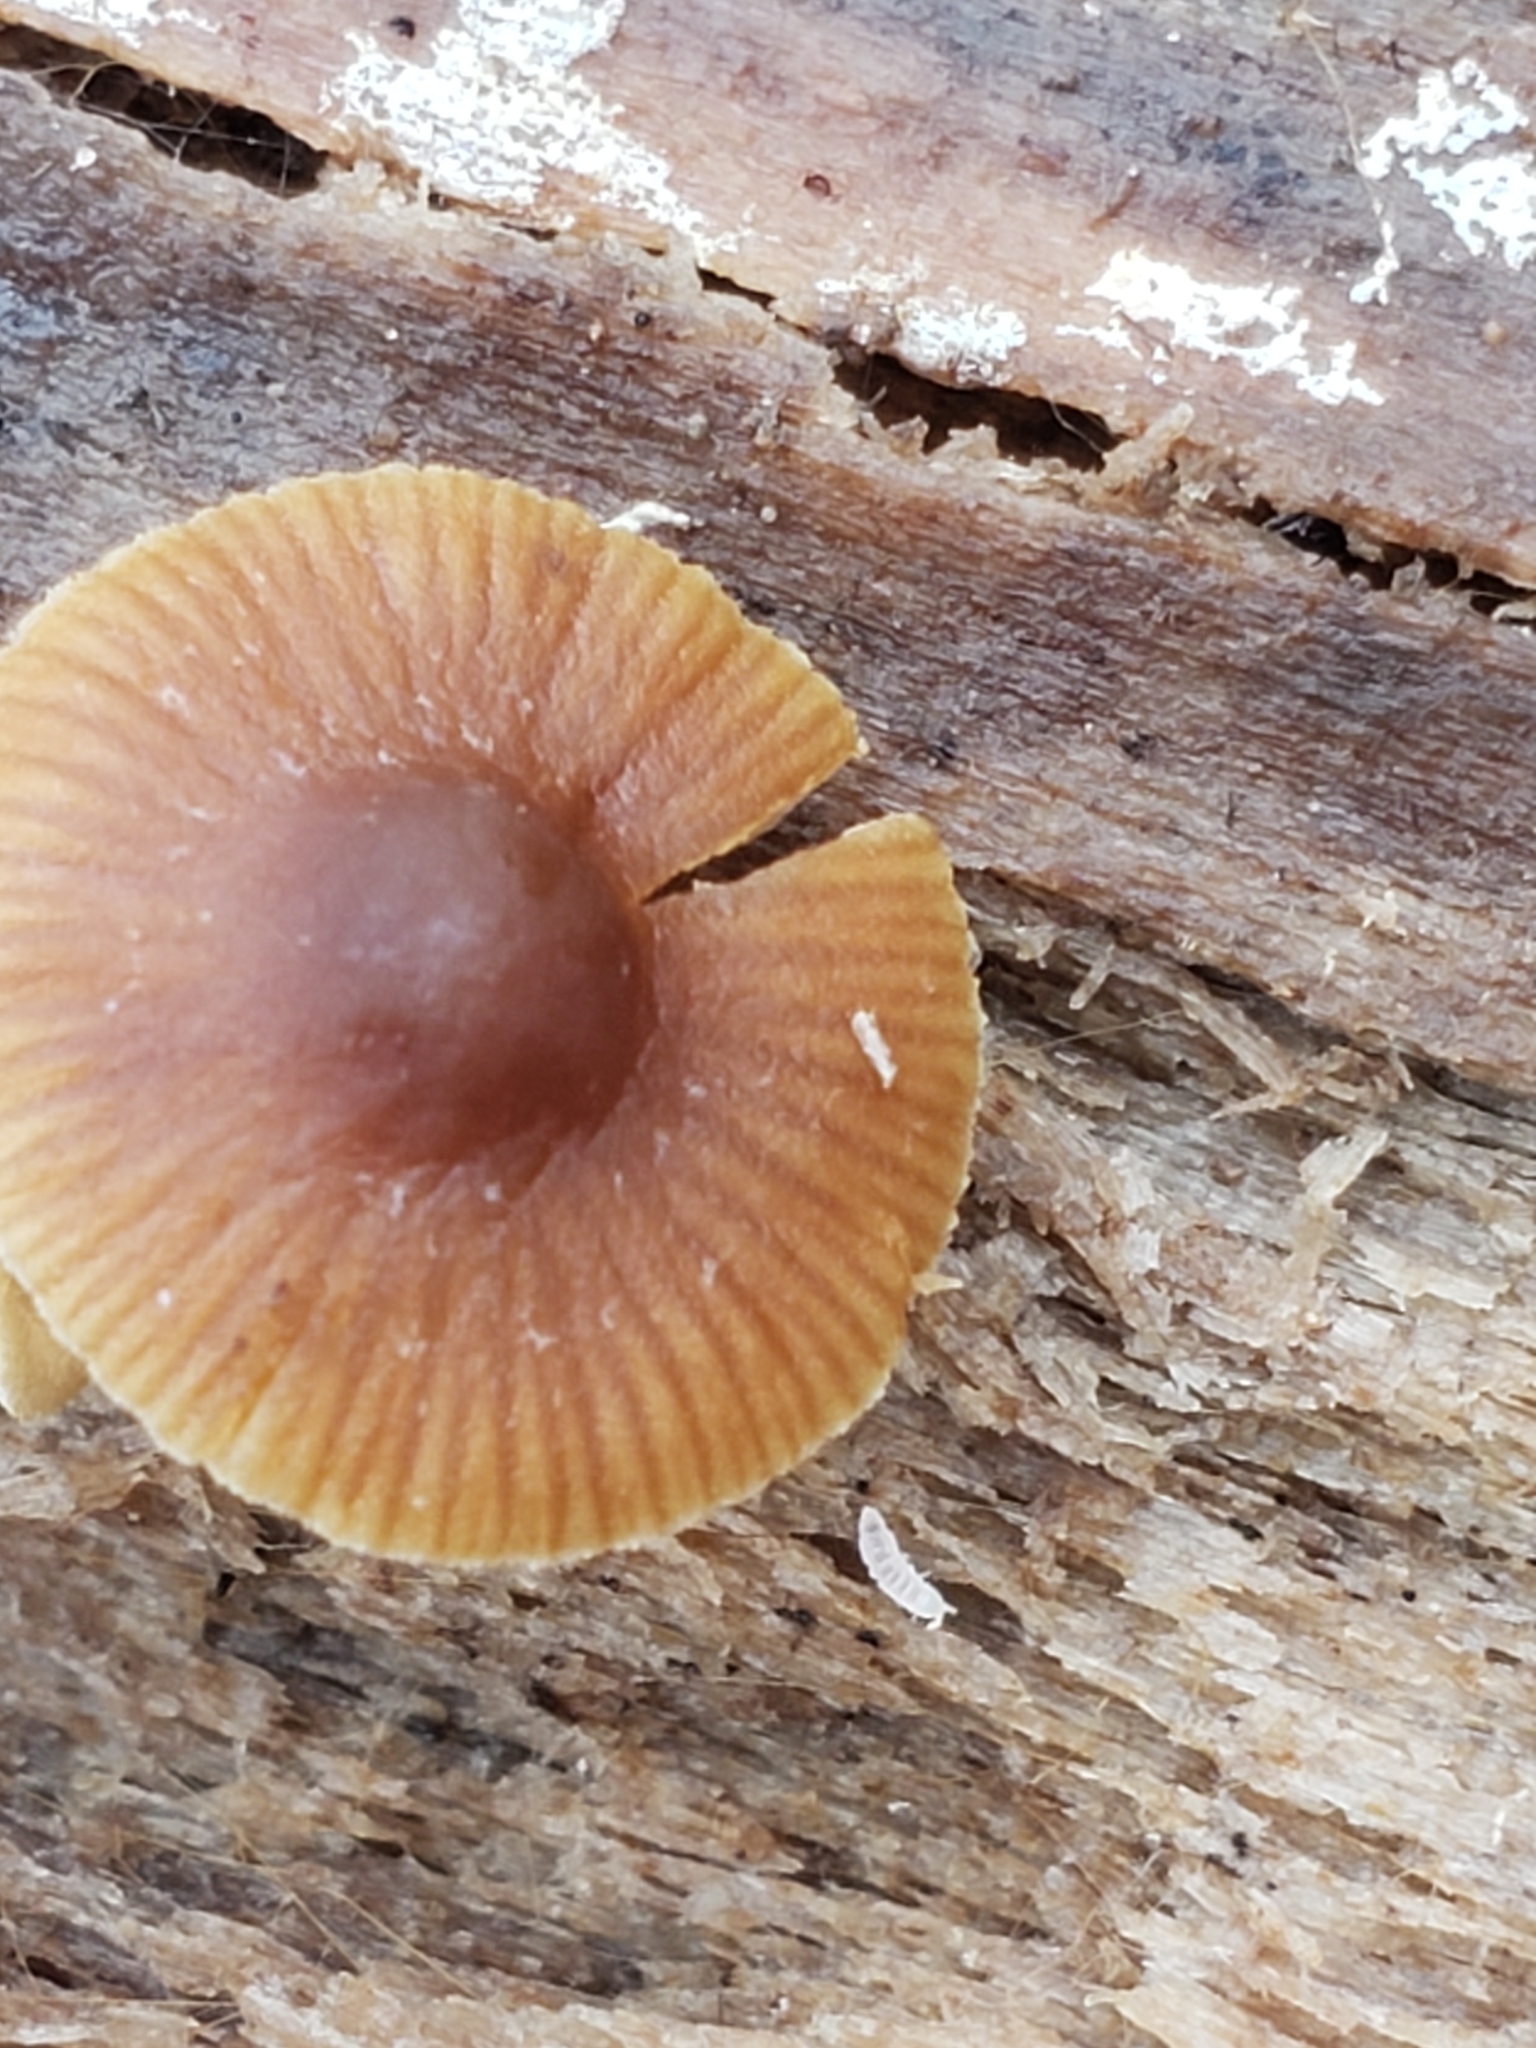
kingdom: Fungi
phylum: Basidiomycota
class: Agaricomycetes
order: Agaricales
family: Bolbitiaceae
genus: Conocybe
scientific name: Conocybe rugosa
